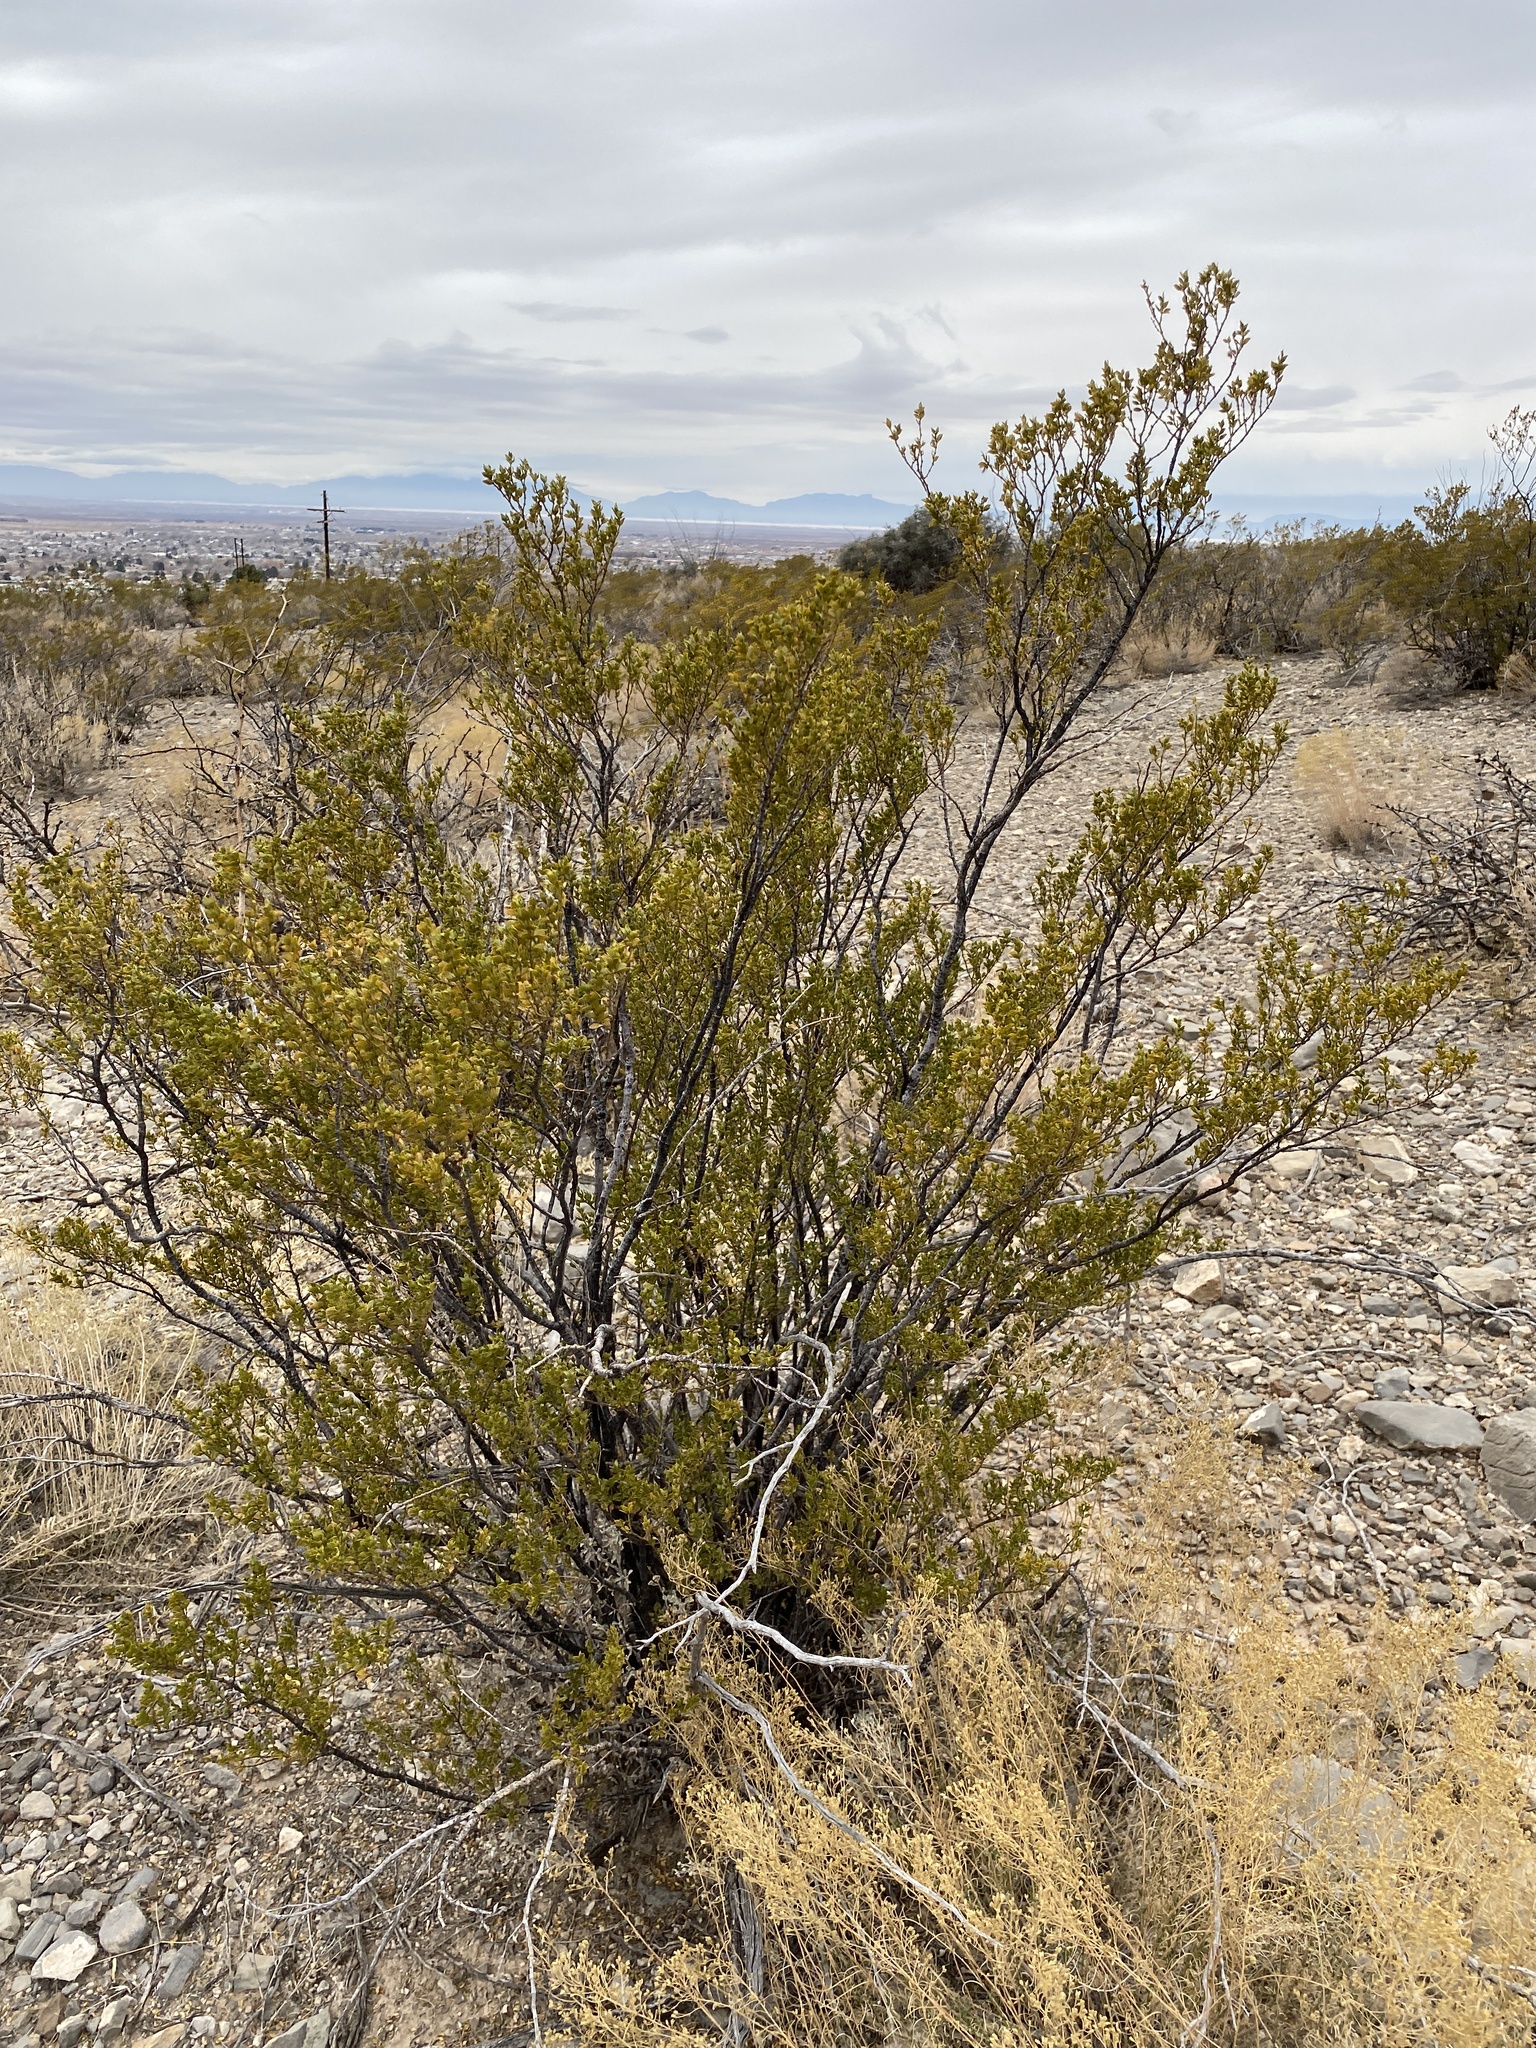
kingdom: Plantae
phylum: Tracheophyta
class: Magnoliopsida
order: Zygophyllales
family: Zygophyllaceae
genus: Larrea
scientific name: Larrea tridentata
